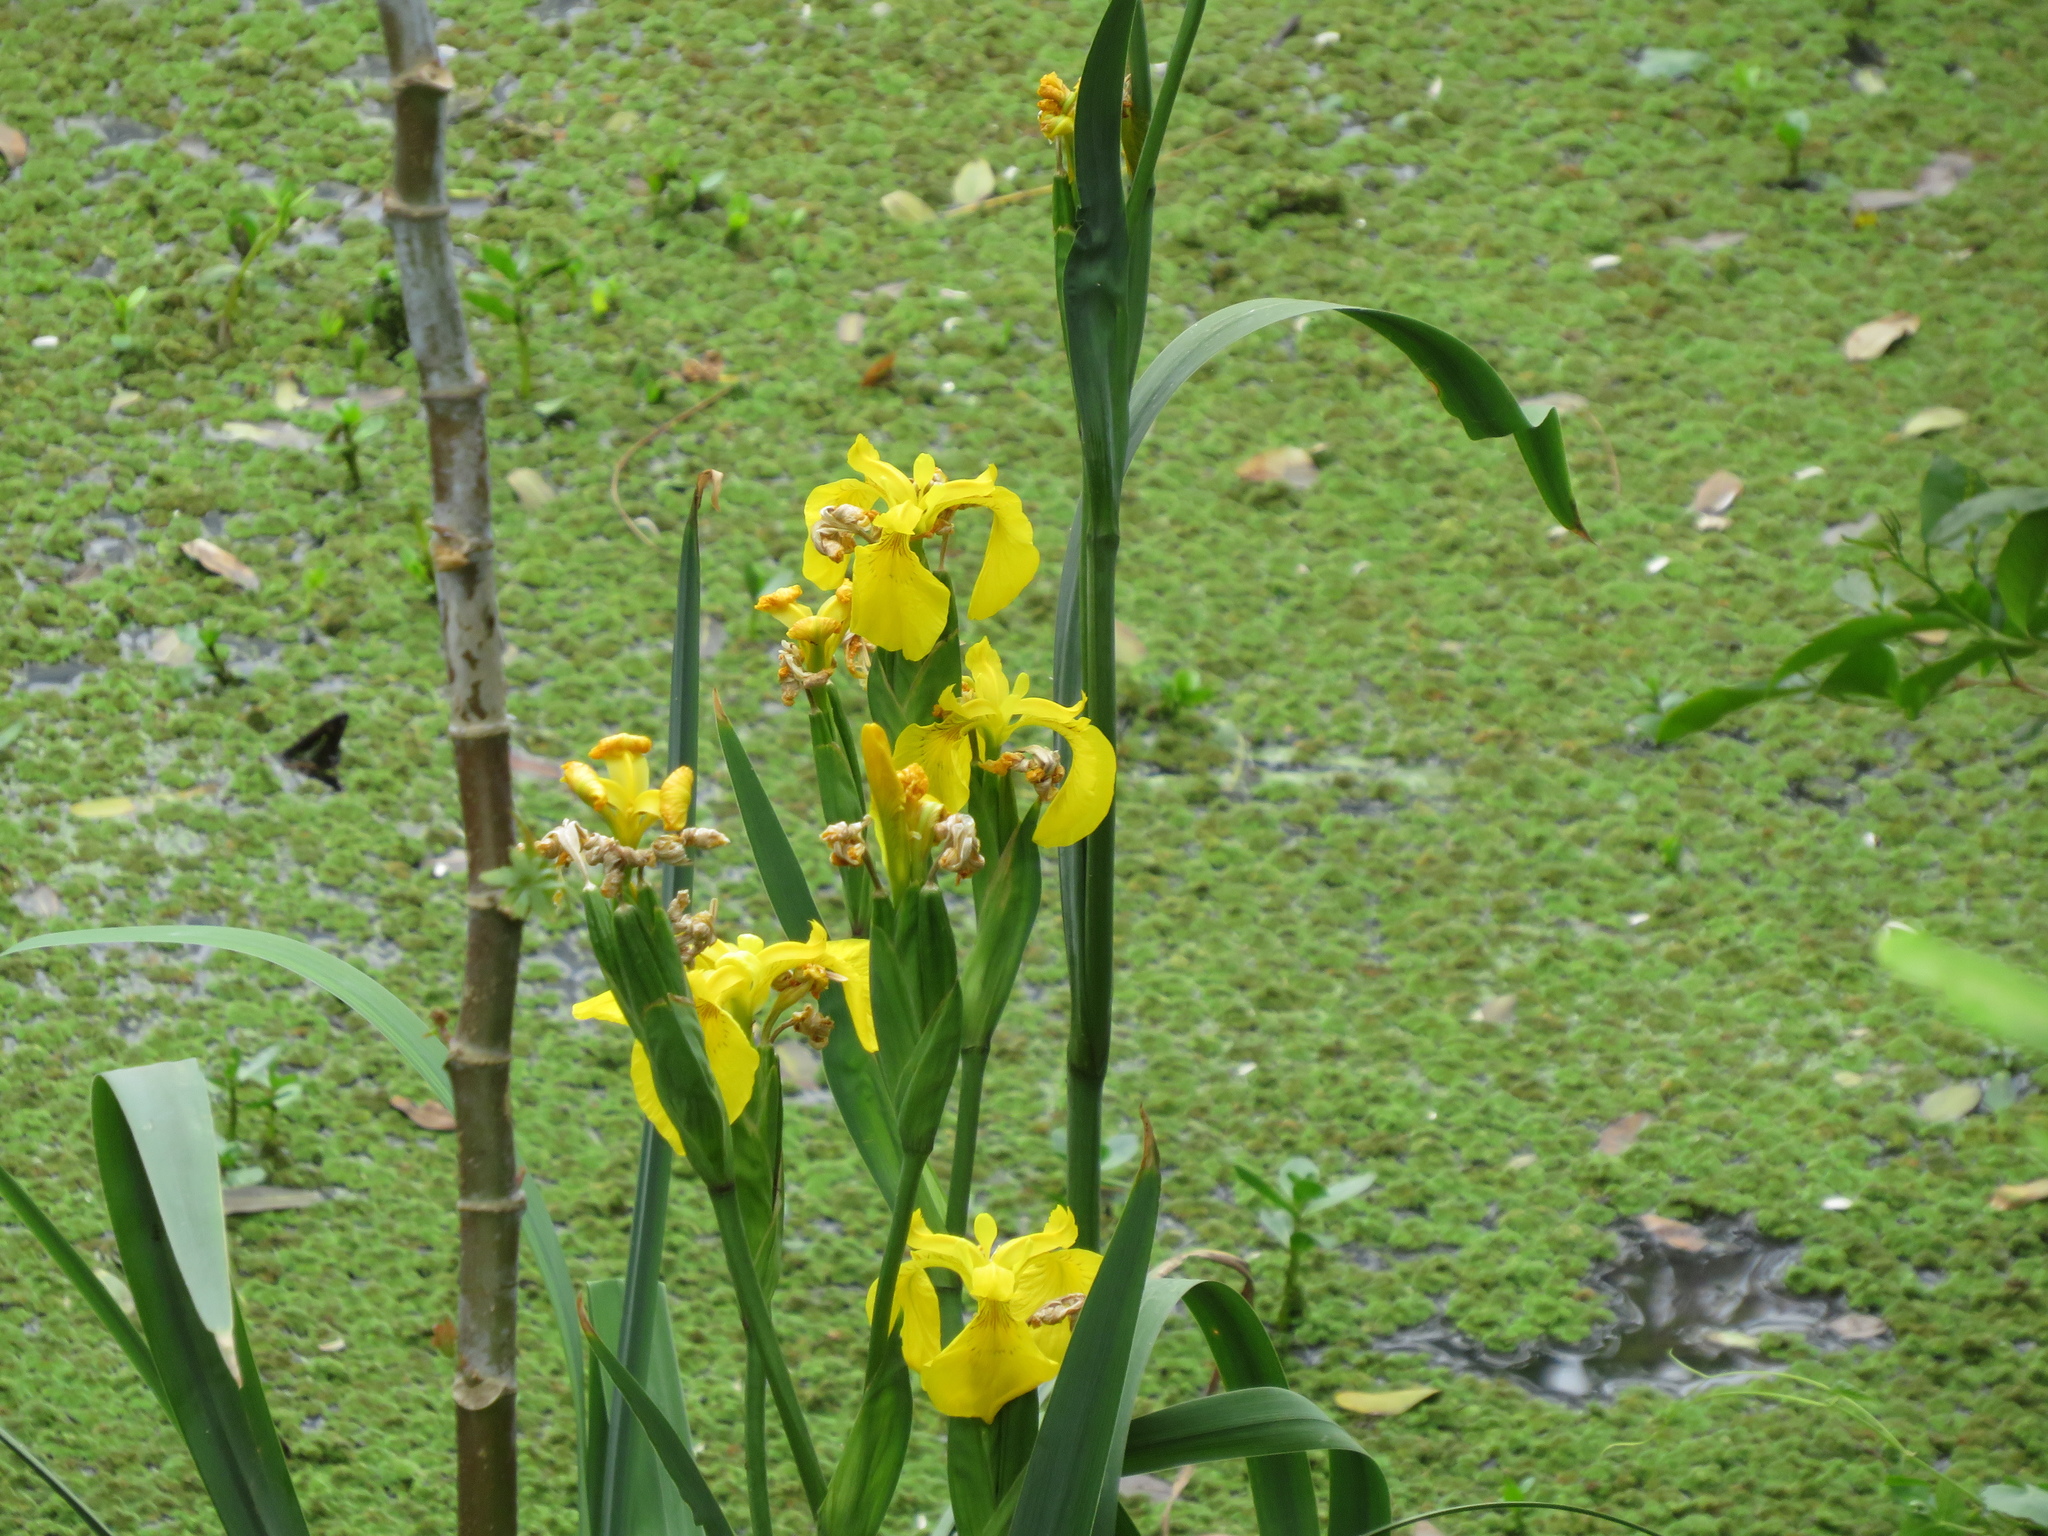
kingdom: Plantae
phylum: Tracheophyta
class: Liliopsida
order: Asparagales
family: Iridaceae
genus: Iris
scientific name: Iris pseudacorus
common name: Yellow flag
